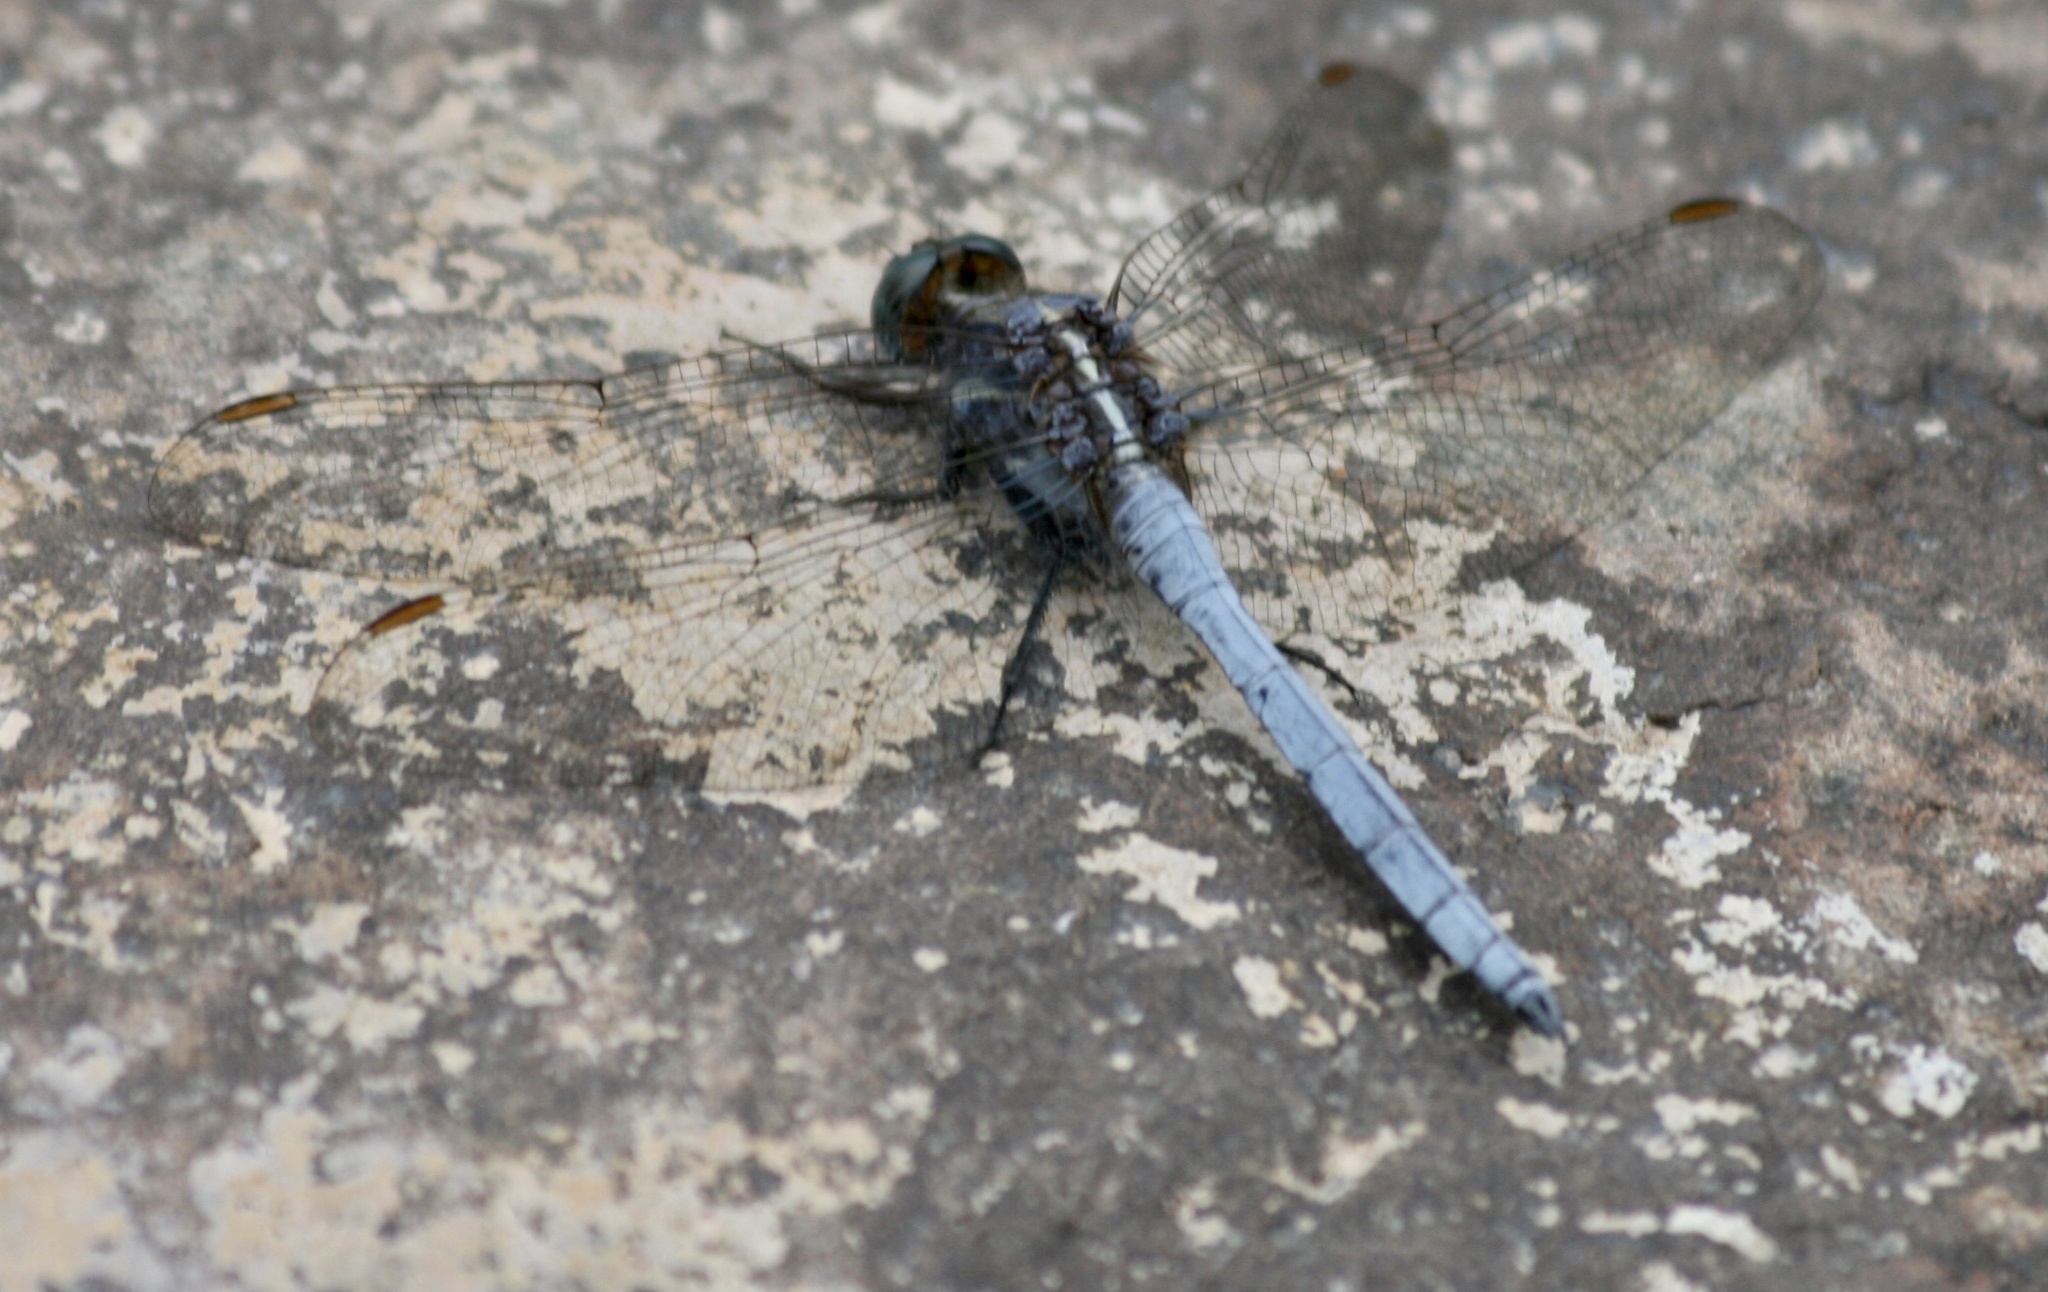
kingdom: Animalia
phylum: Arthropoda
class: Insecta
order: Odonata
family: Libellulidae
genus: Orthetrum
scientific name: Orthetrum julia
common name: Julia skimmer
